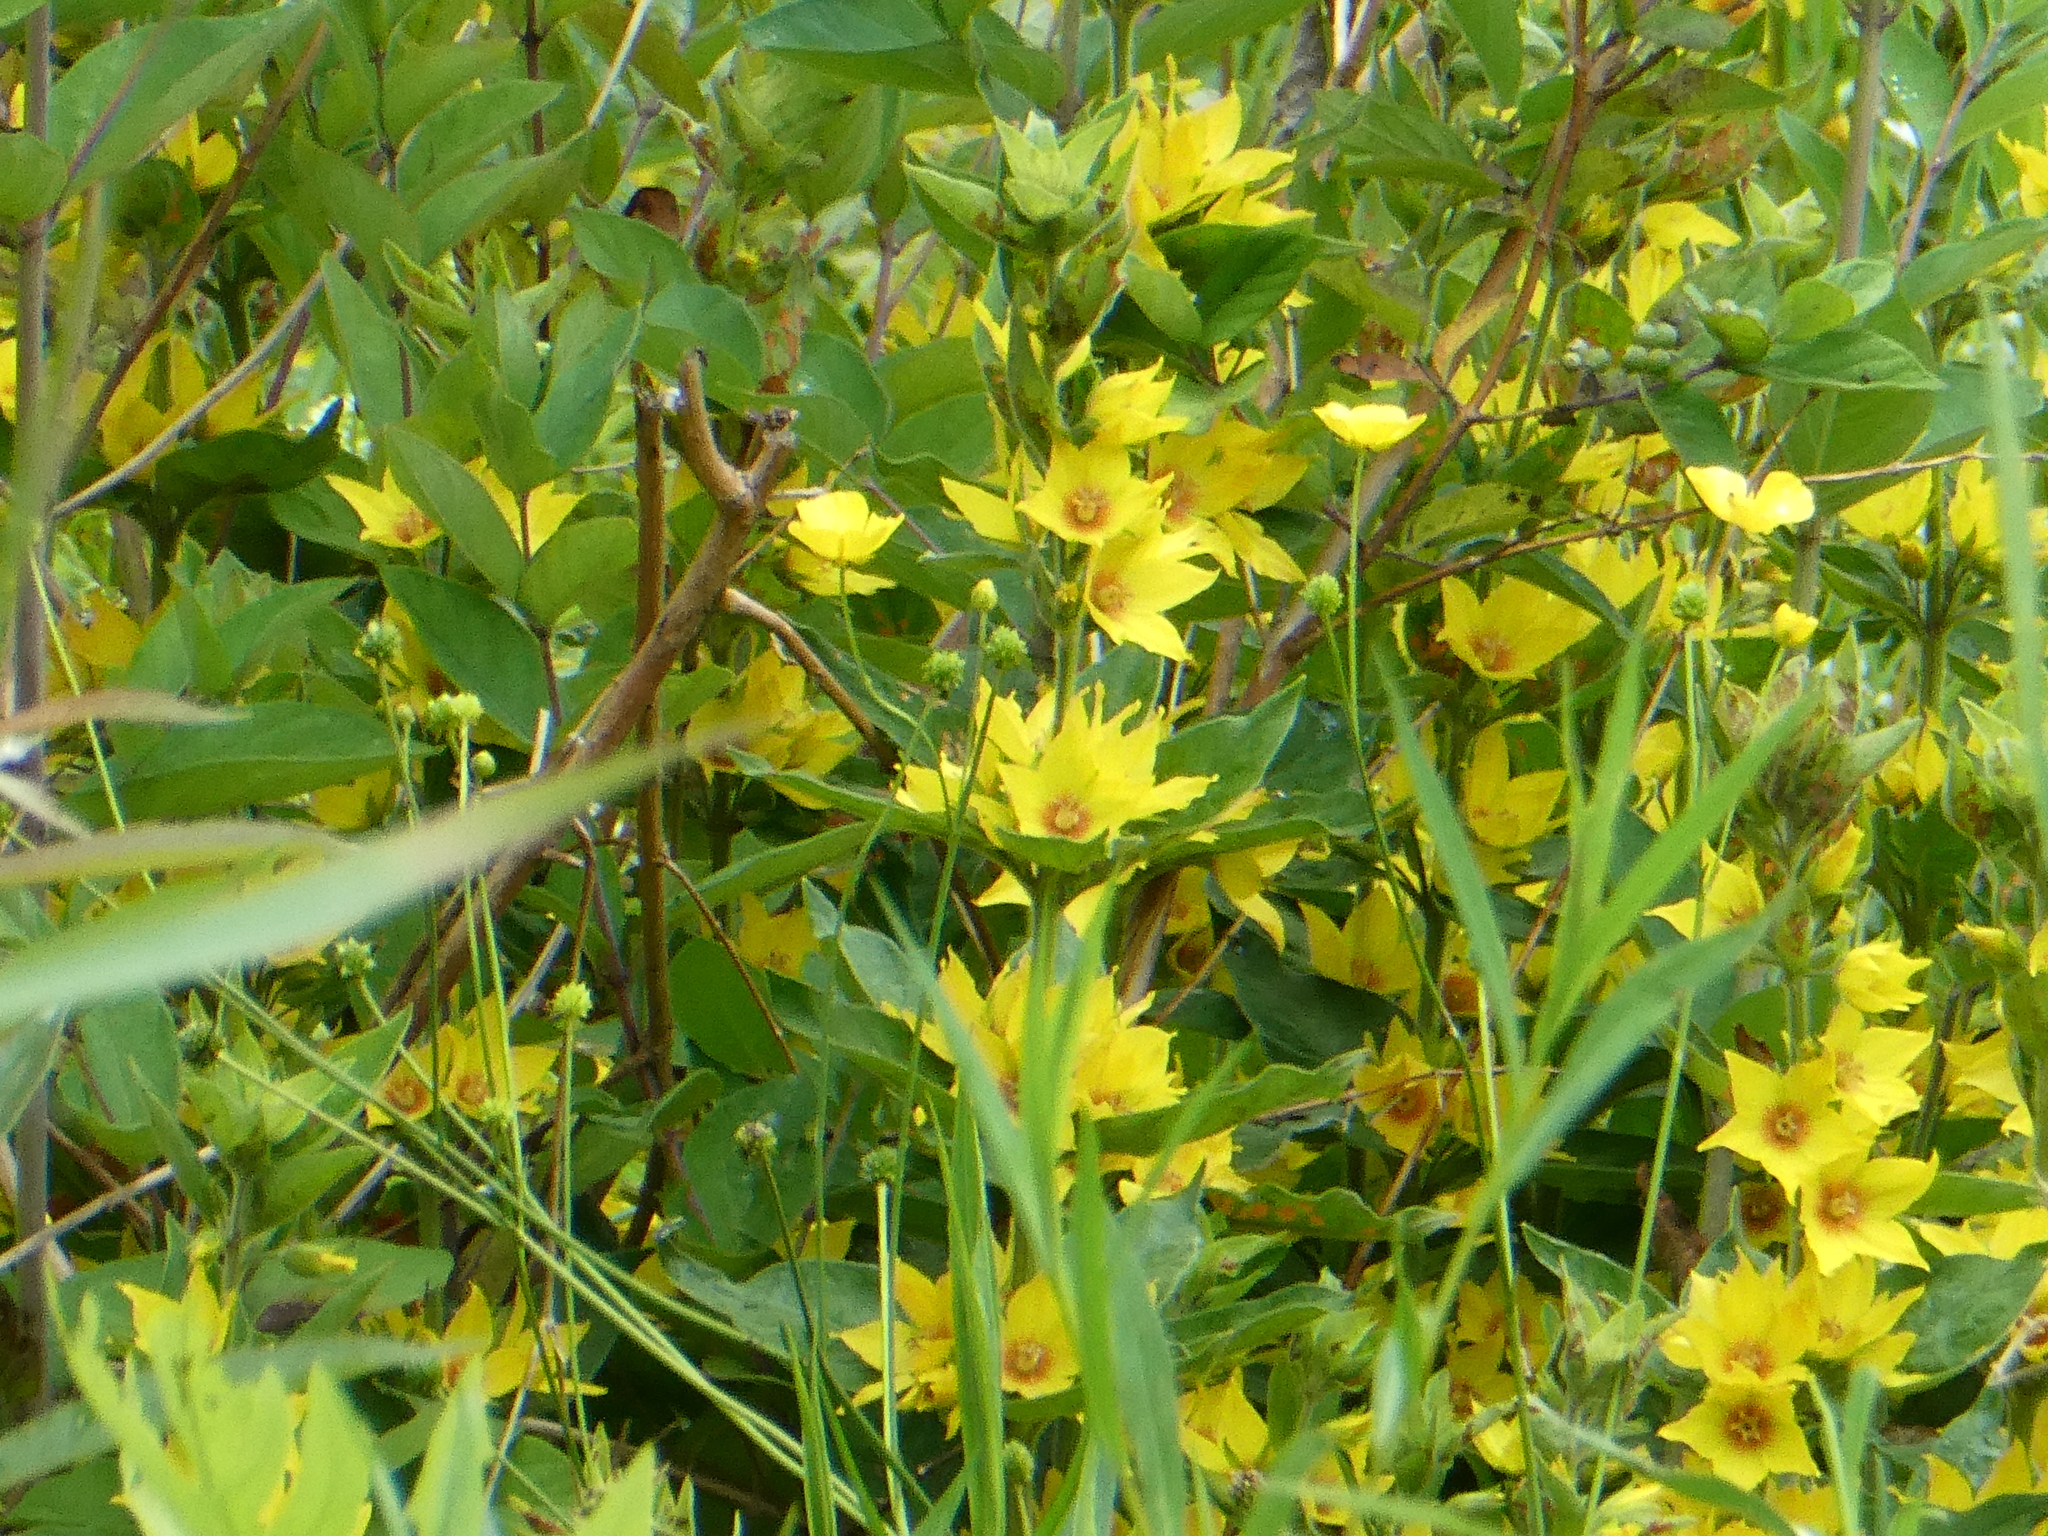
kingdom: Plantae
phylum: Tracheophyta
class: Magnoliopsida
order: Ericales
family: Primulaceae
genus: Lysimachia
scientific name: Lysimachia punctata
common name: Dotted loosestrife
